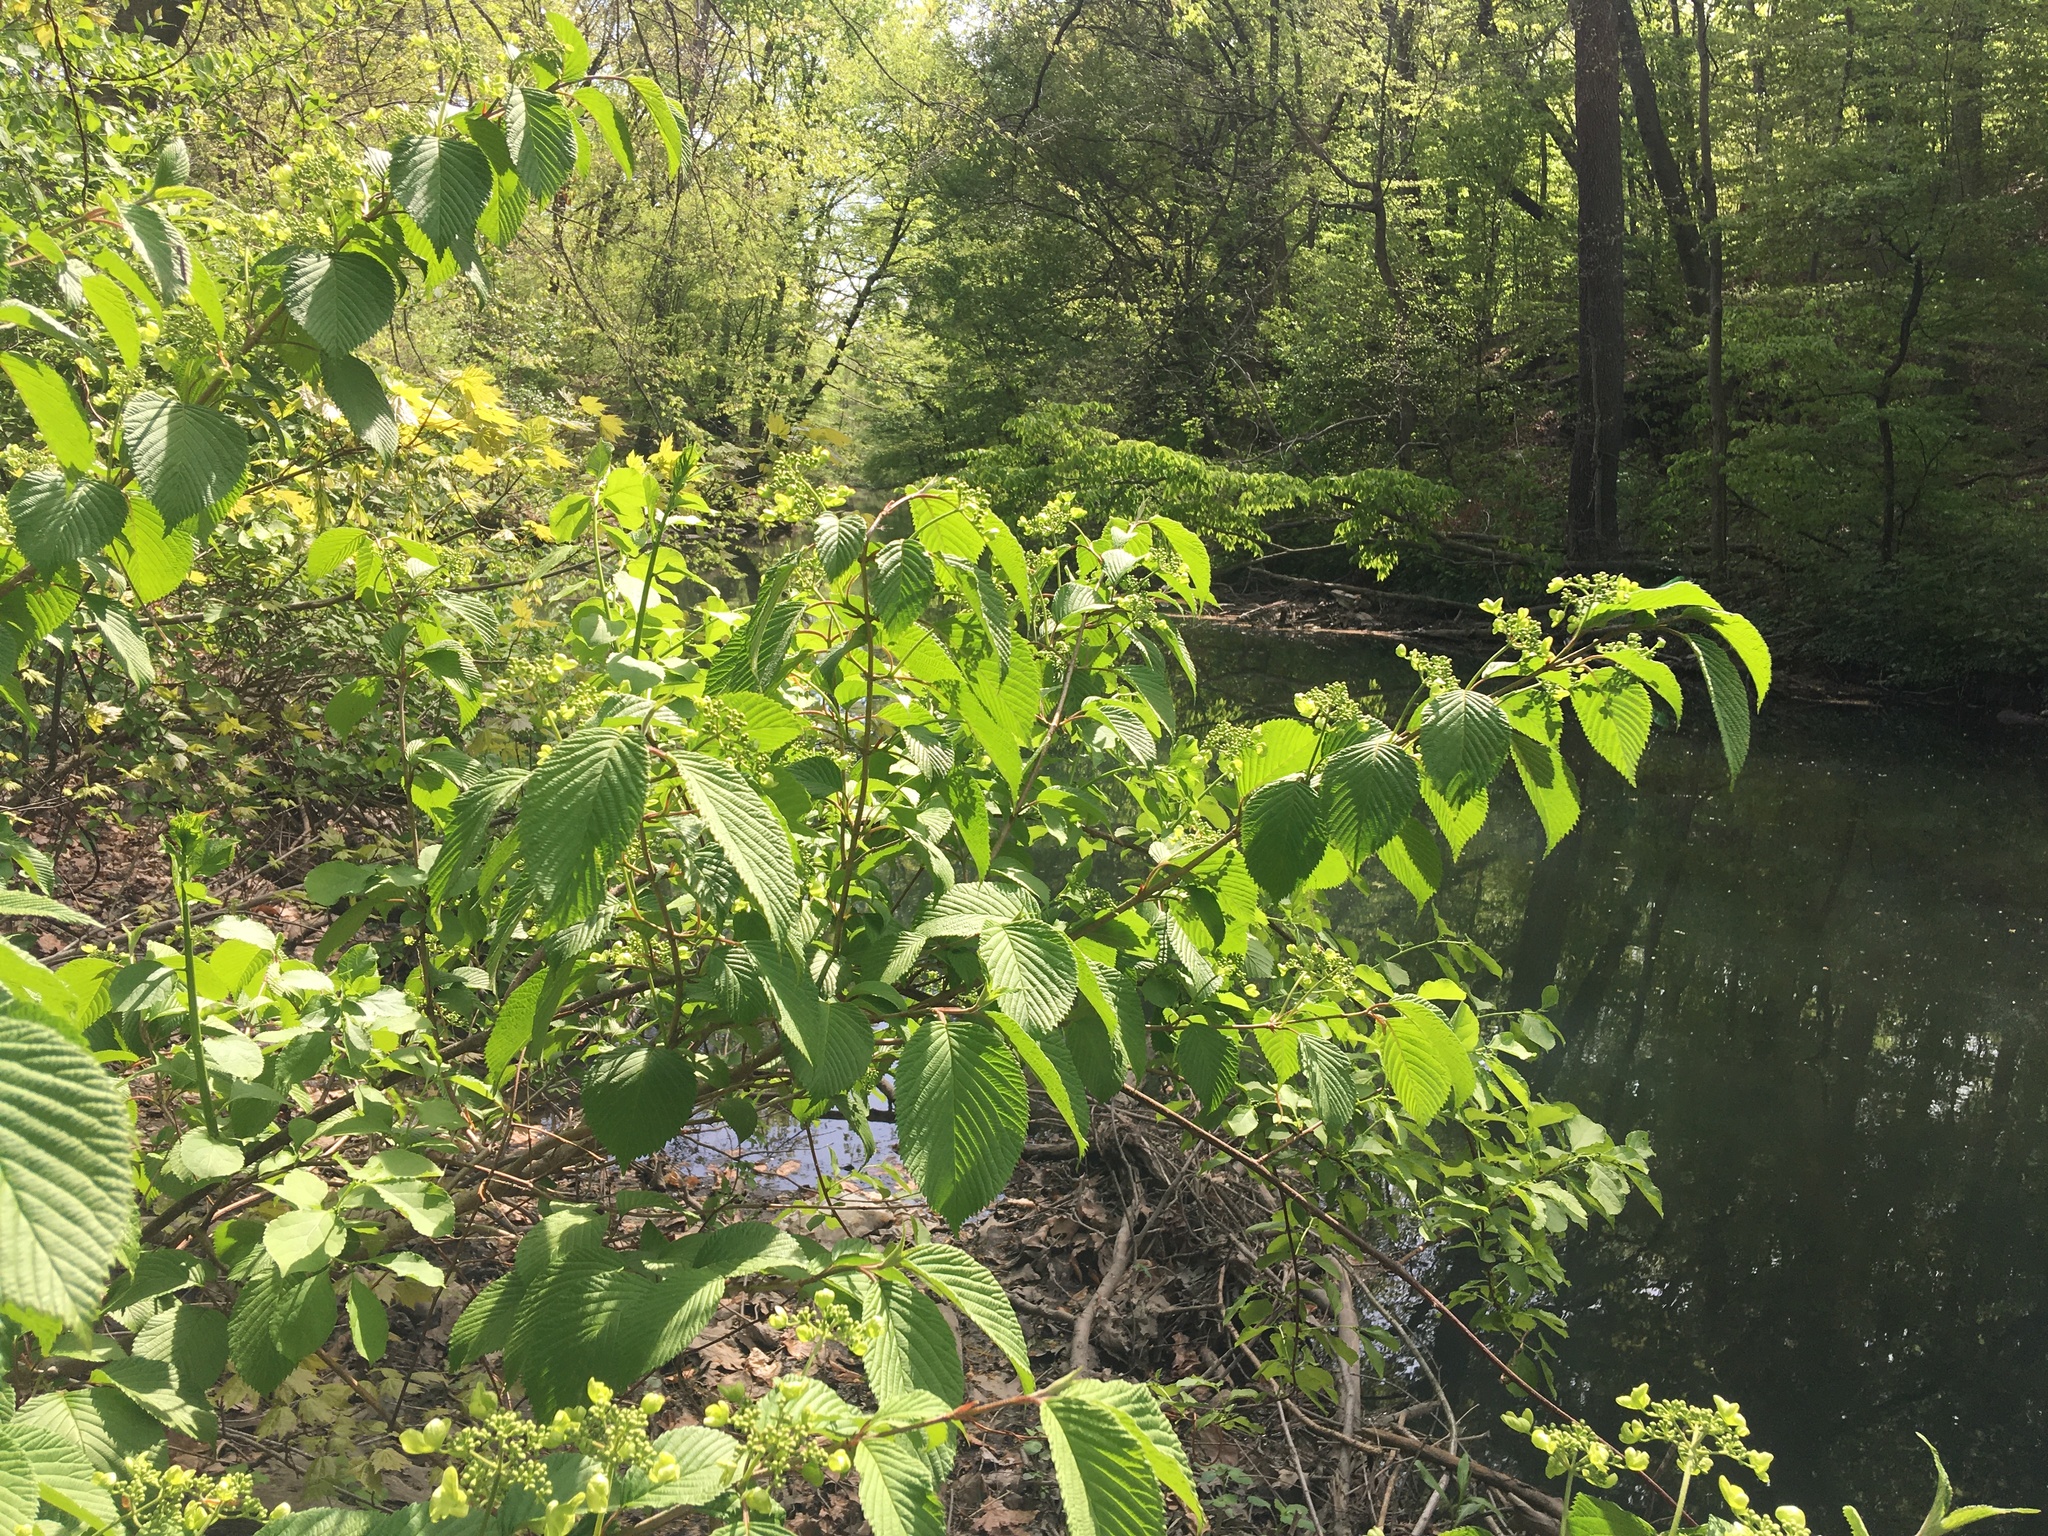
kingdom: Plantae
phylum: Tracheophyta
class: Magnoliopsida
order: Dipsacales
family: Viburnaceae
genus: Viburnum
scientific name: Viburnum plicatum
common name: Japanese snowball
